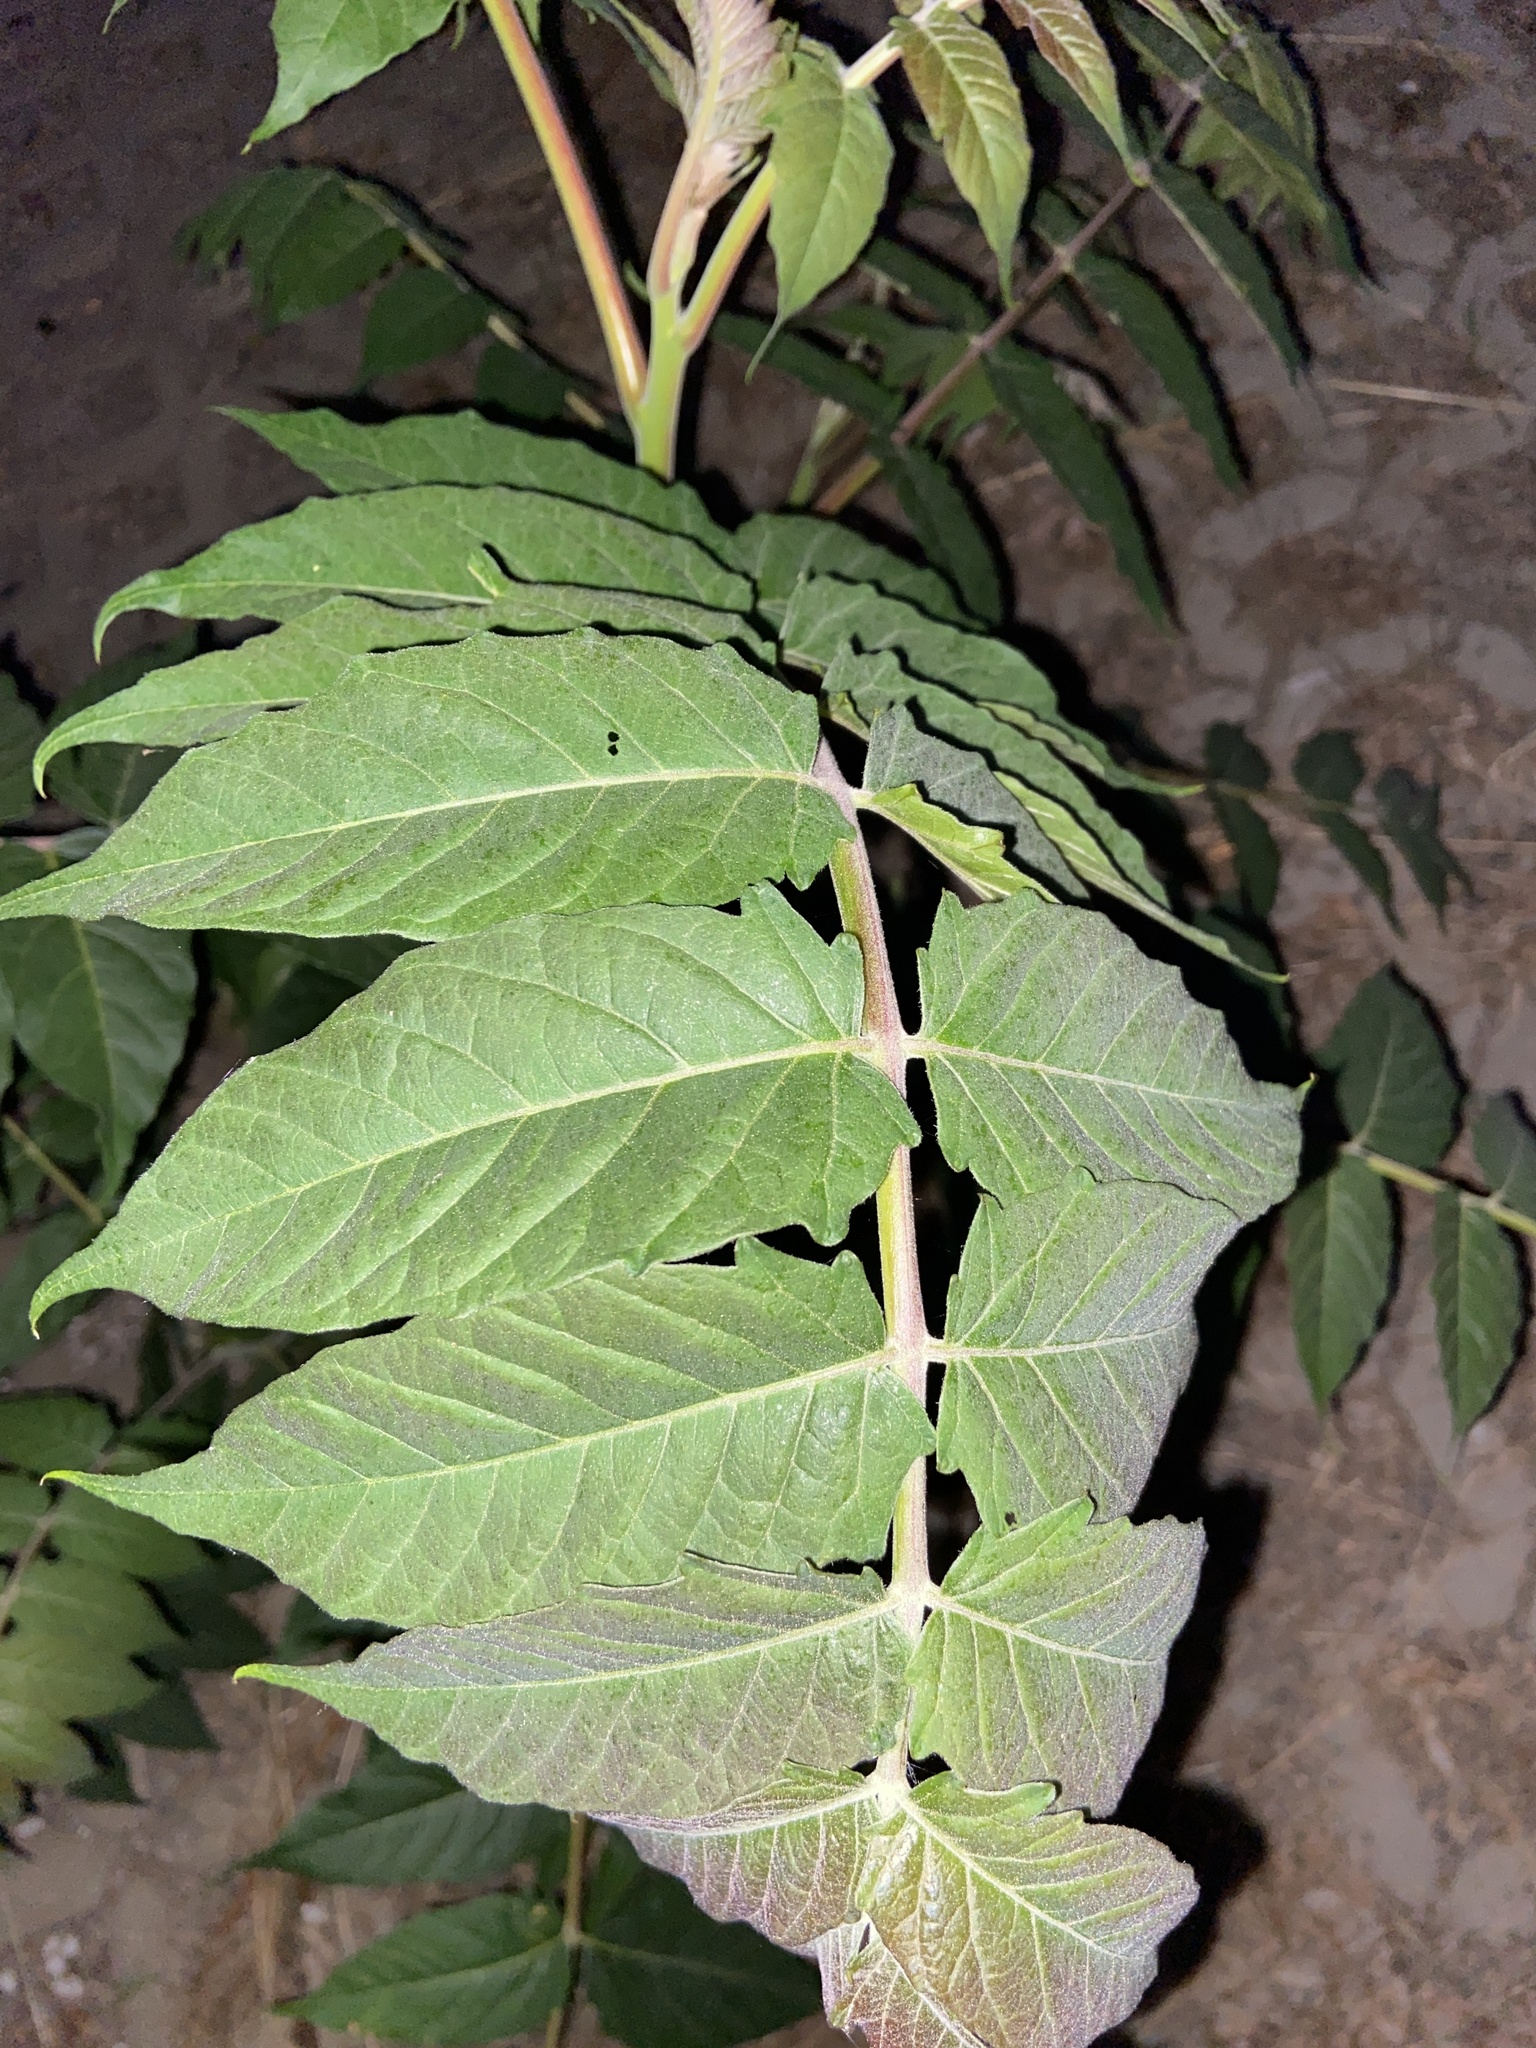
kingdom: Plantae
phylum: Tracheophyta
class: Magnoliopsida
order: Sapindales
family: Simaroubaceae
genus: Ailanthus
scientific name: Ailanthus altissima
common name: Tree-of-heaven
